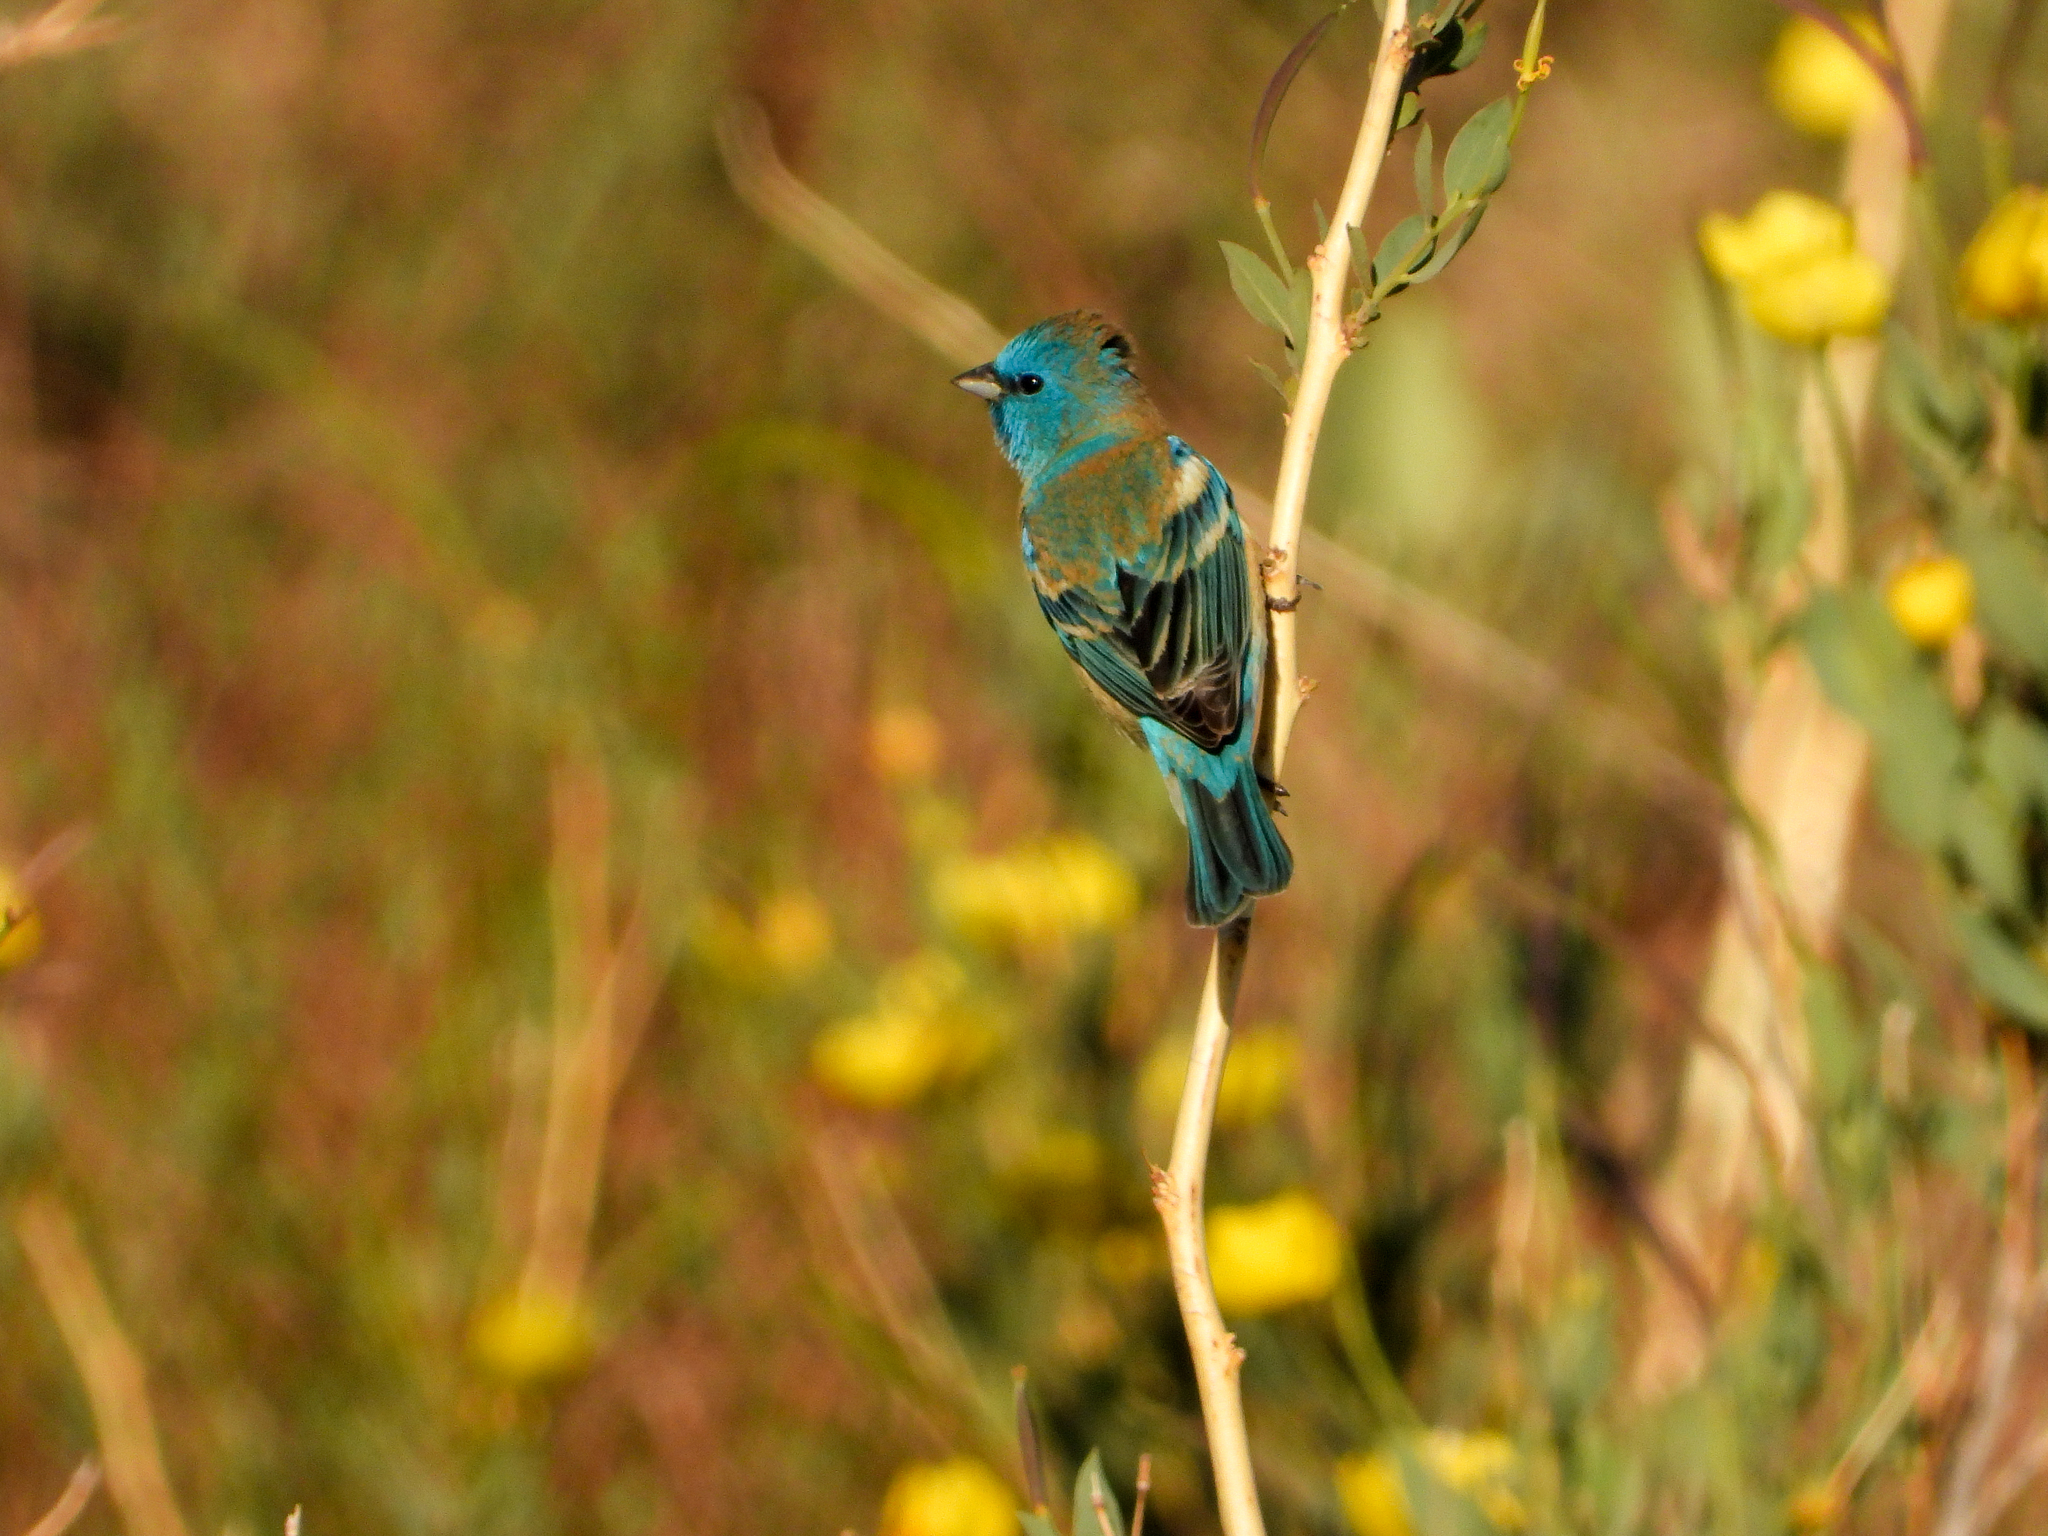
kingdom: Animalia
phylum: Chordata
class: Aves
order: Passeriformes
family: Cardinalidae
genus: Passerina
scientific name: Passerina amoena
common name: Lazuli bunting
